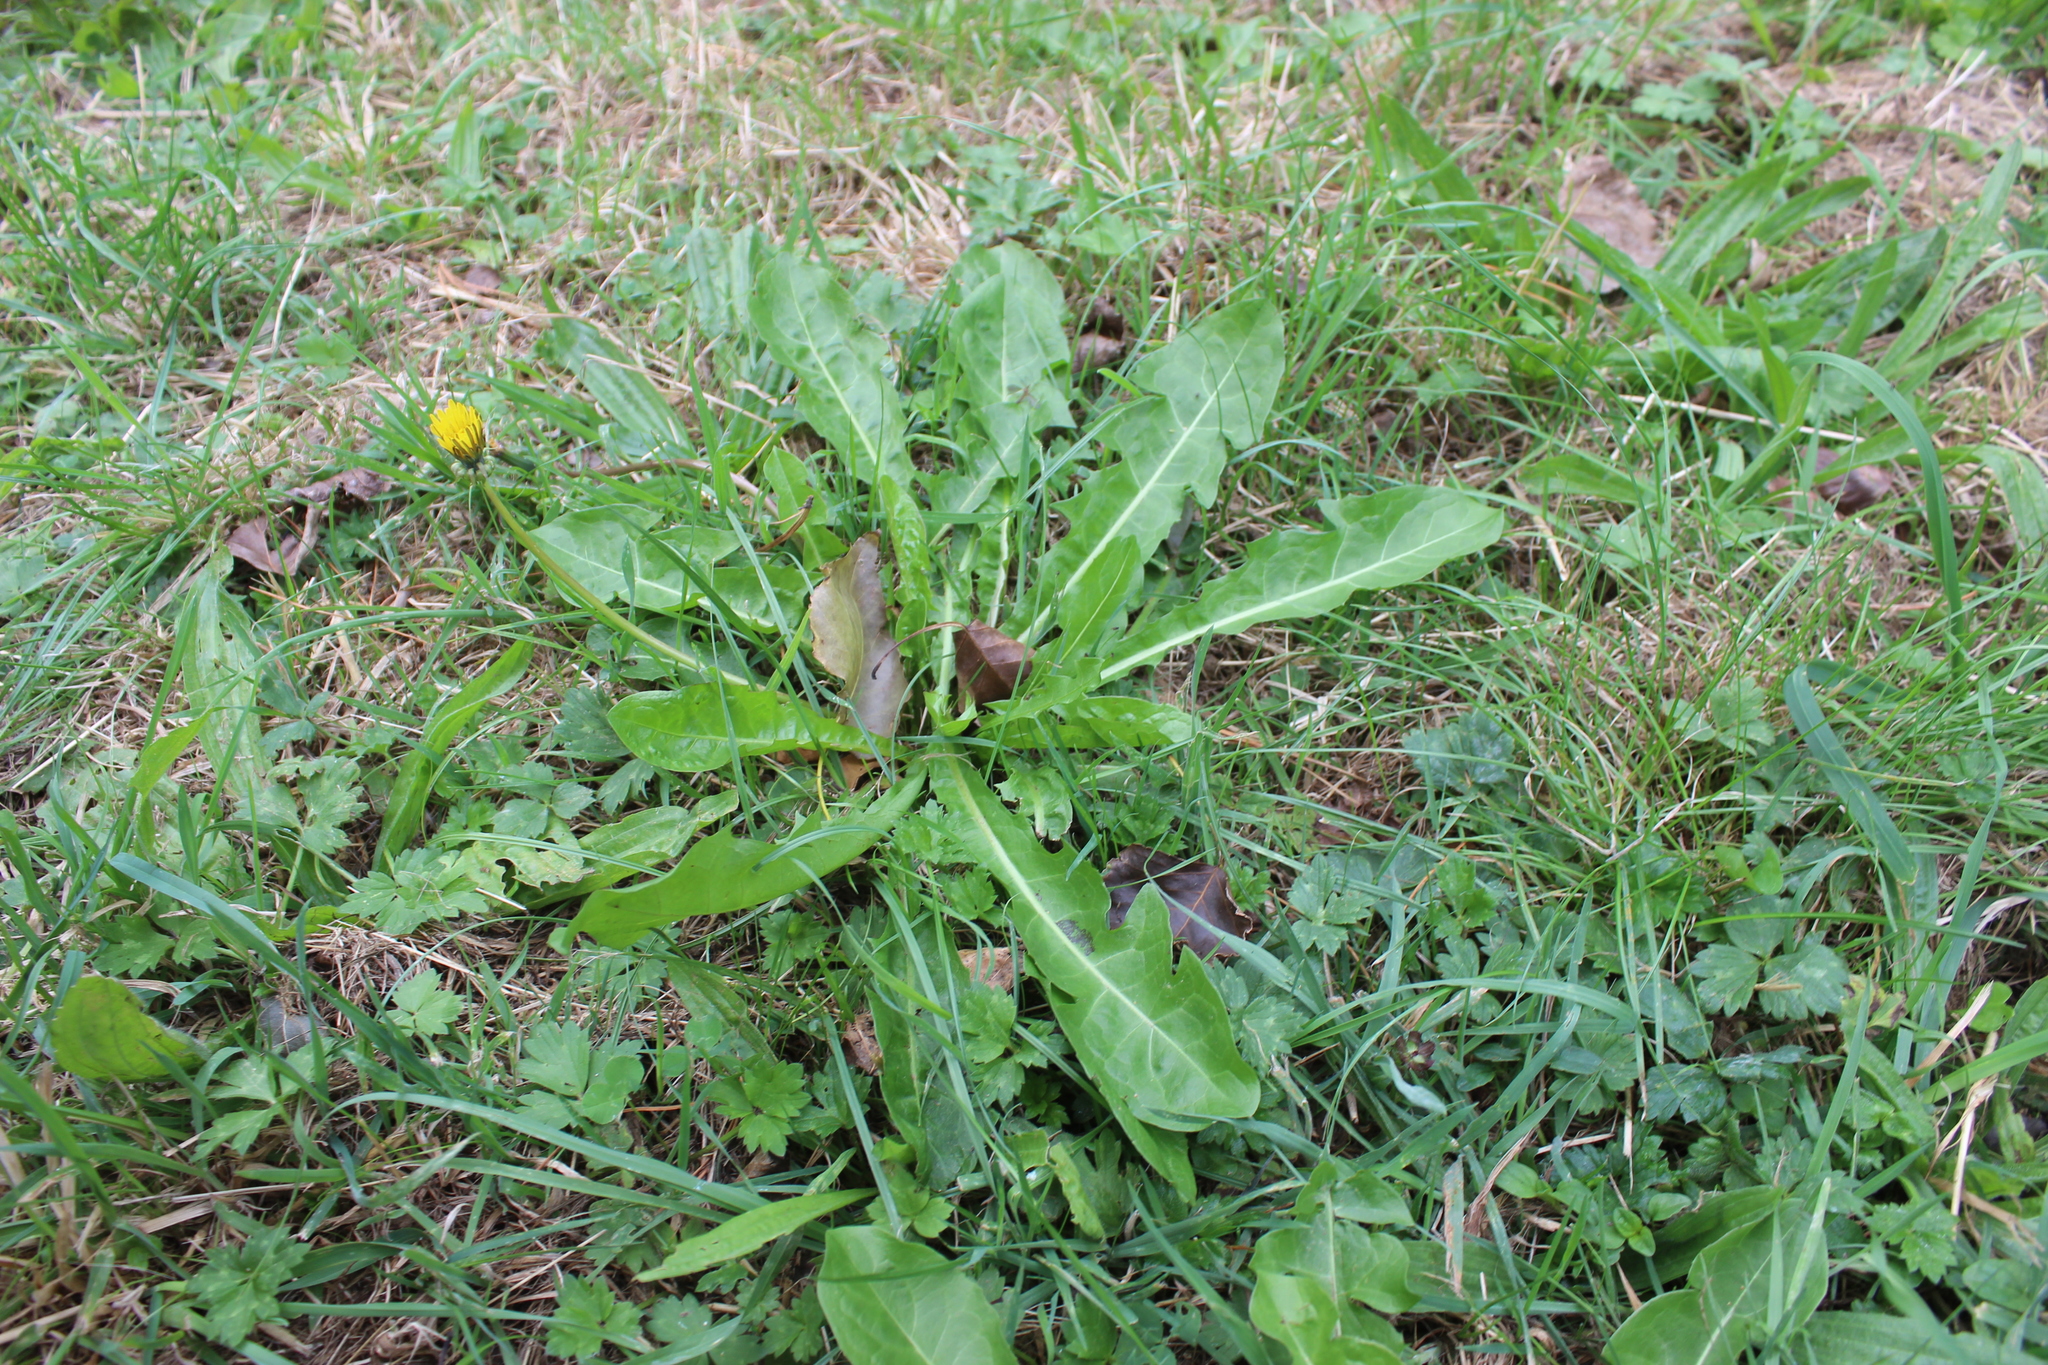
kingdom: Plantae
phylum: Tracheophyta
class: Magnoliopsida
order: Asterales
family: Asteraceae
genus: Taraxacum
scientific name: Taraxacum officinale
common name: Common dandelion
